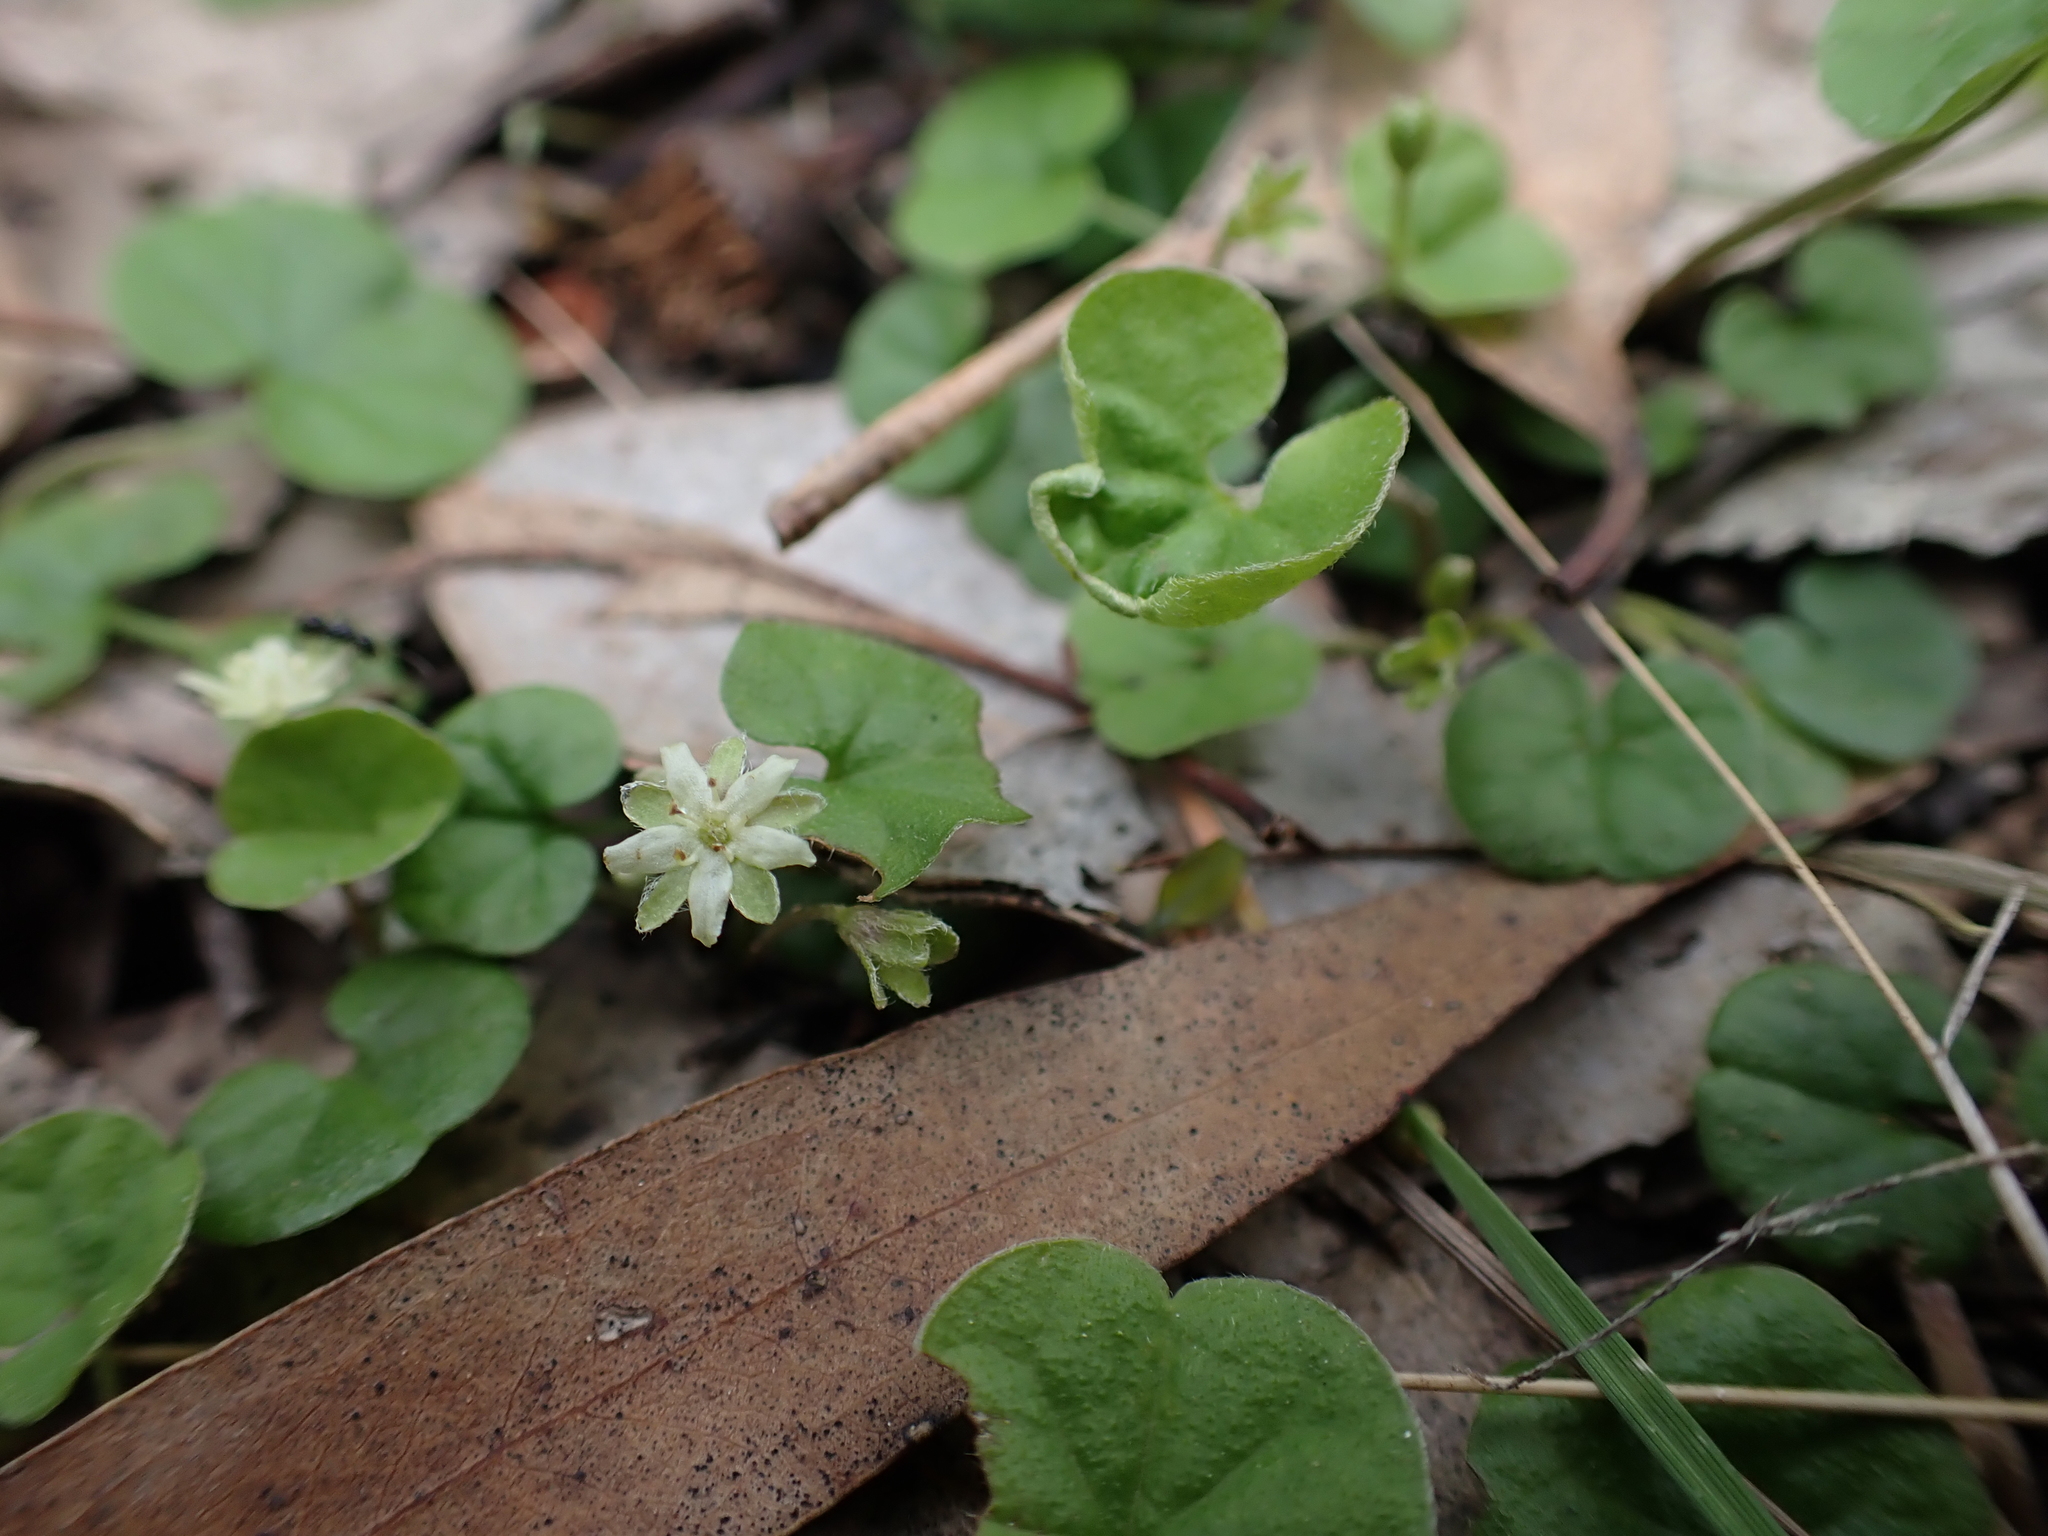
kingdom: Plantae
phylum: Tracheophyta
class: Magnoliopsida
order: Solanales
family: Convolvulaceae
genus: Dichondra
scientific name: Dichondra repens
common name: Kidneyweed
